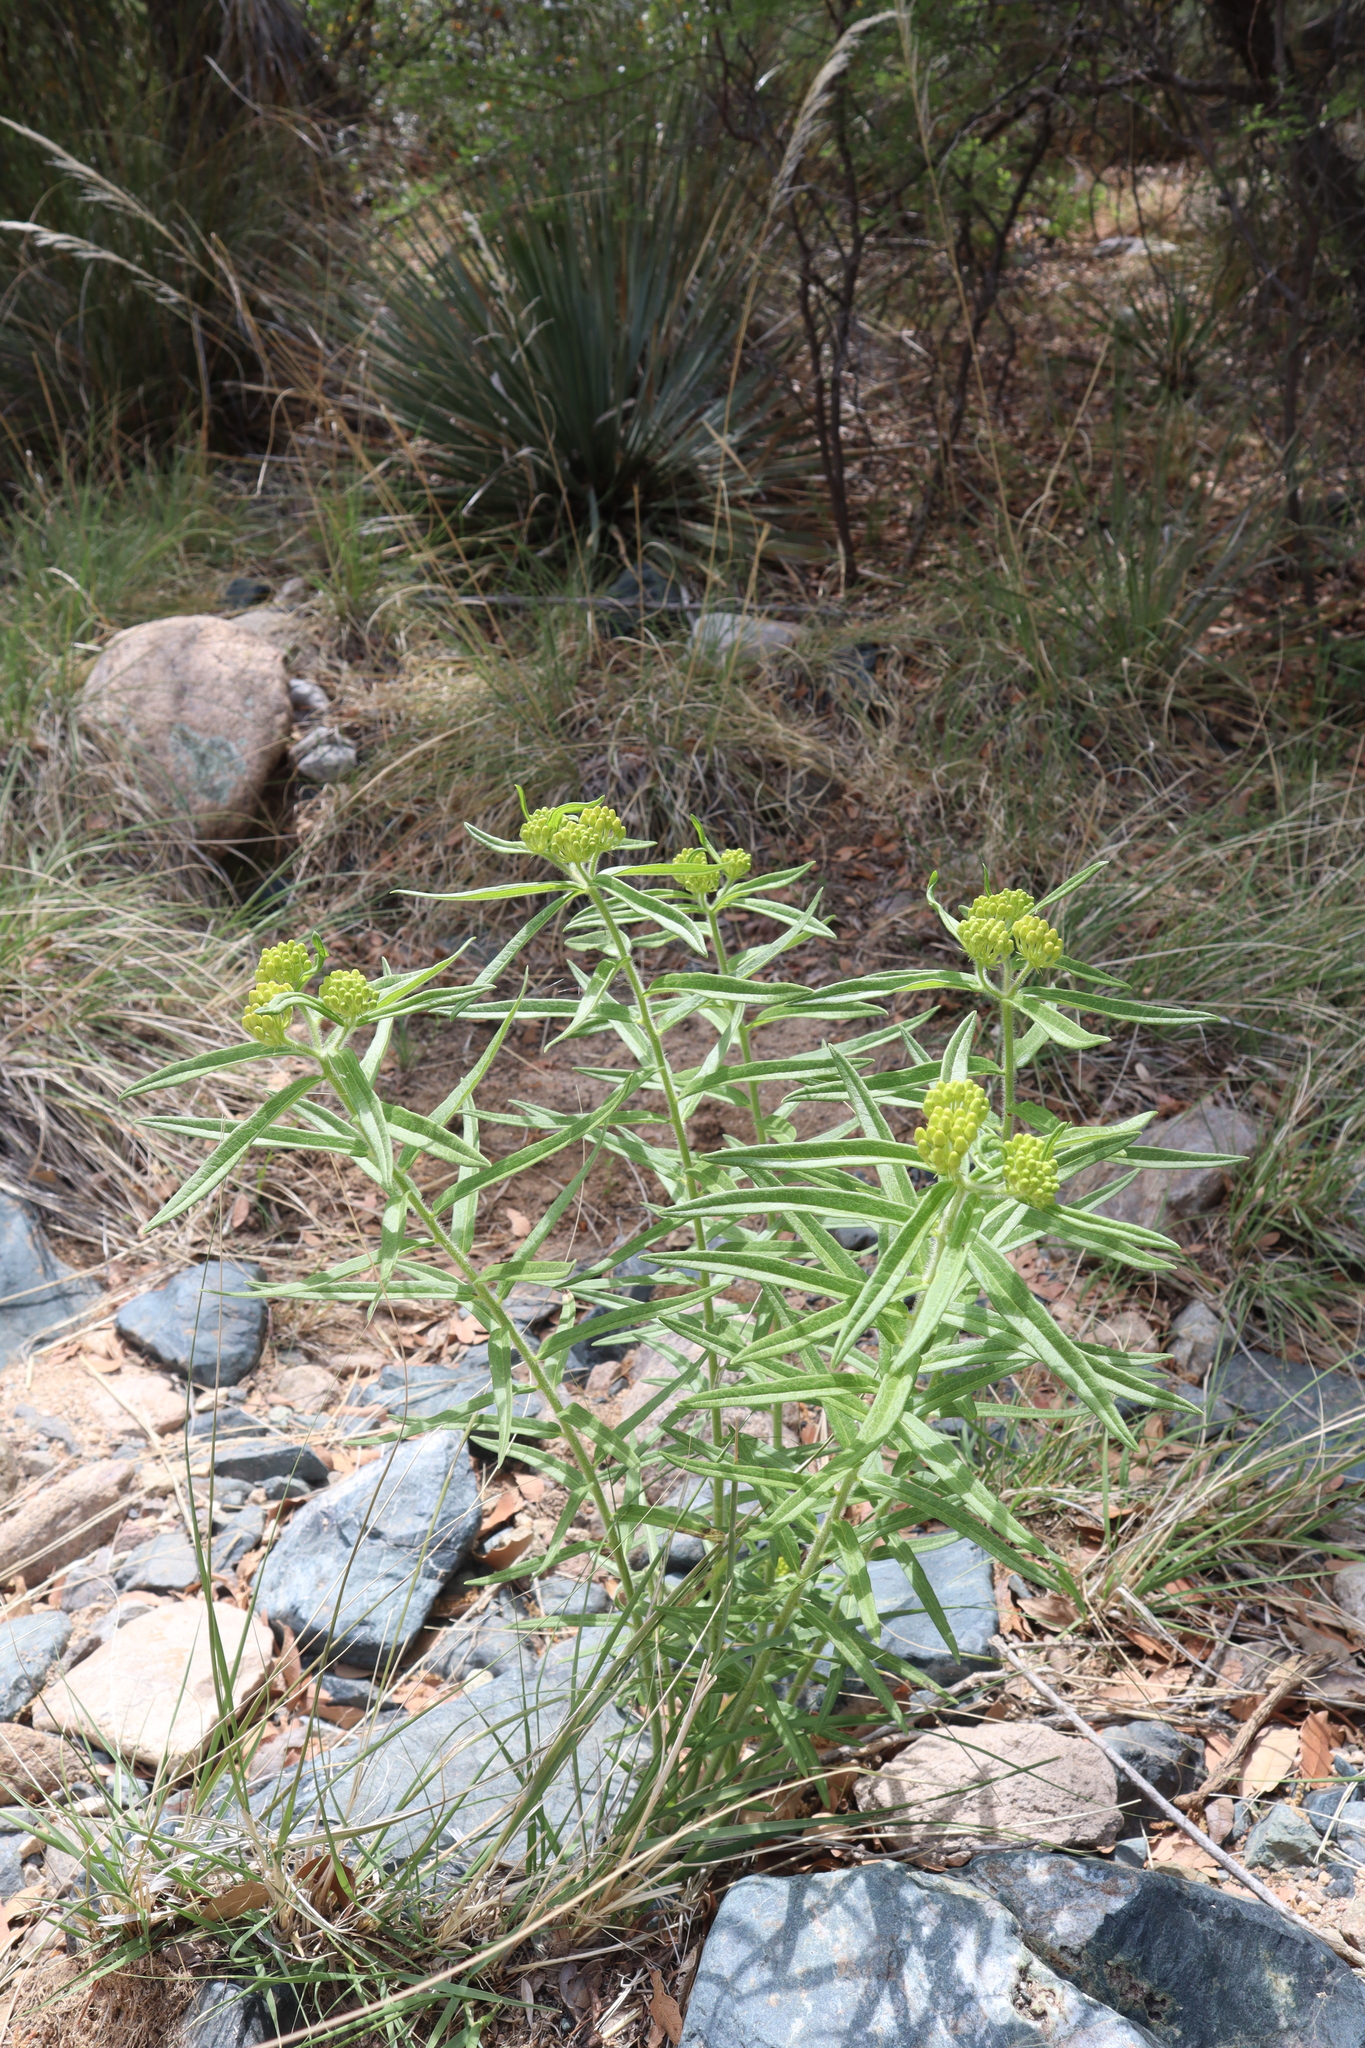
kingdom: Plantae
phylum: Tracheophyta
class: Magnoliopsida
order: Gentianales
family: Apocynaceae
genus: Asclepias
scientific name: Asclepias tuberosa
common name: Butterfly milkweed
